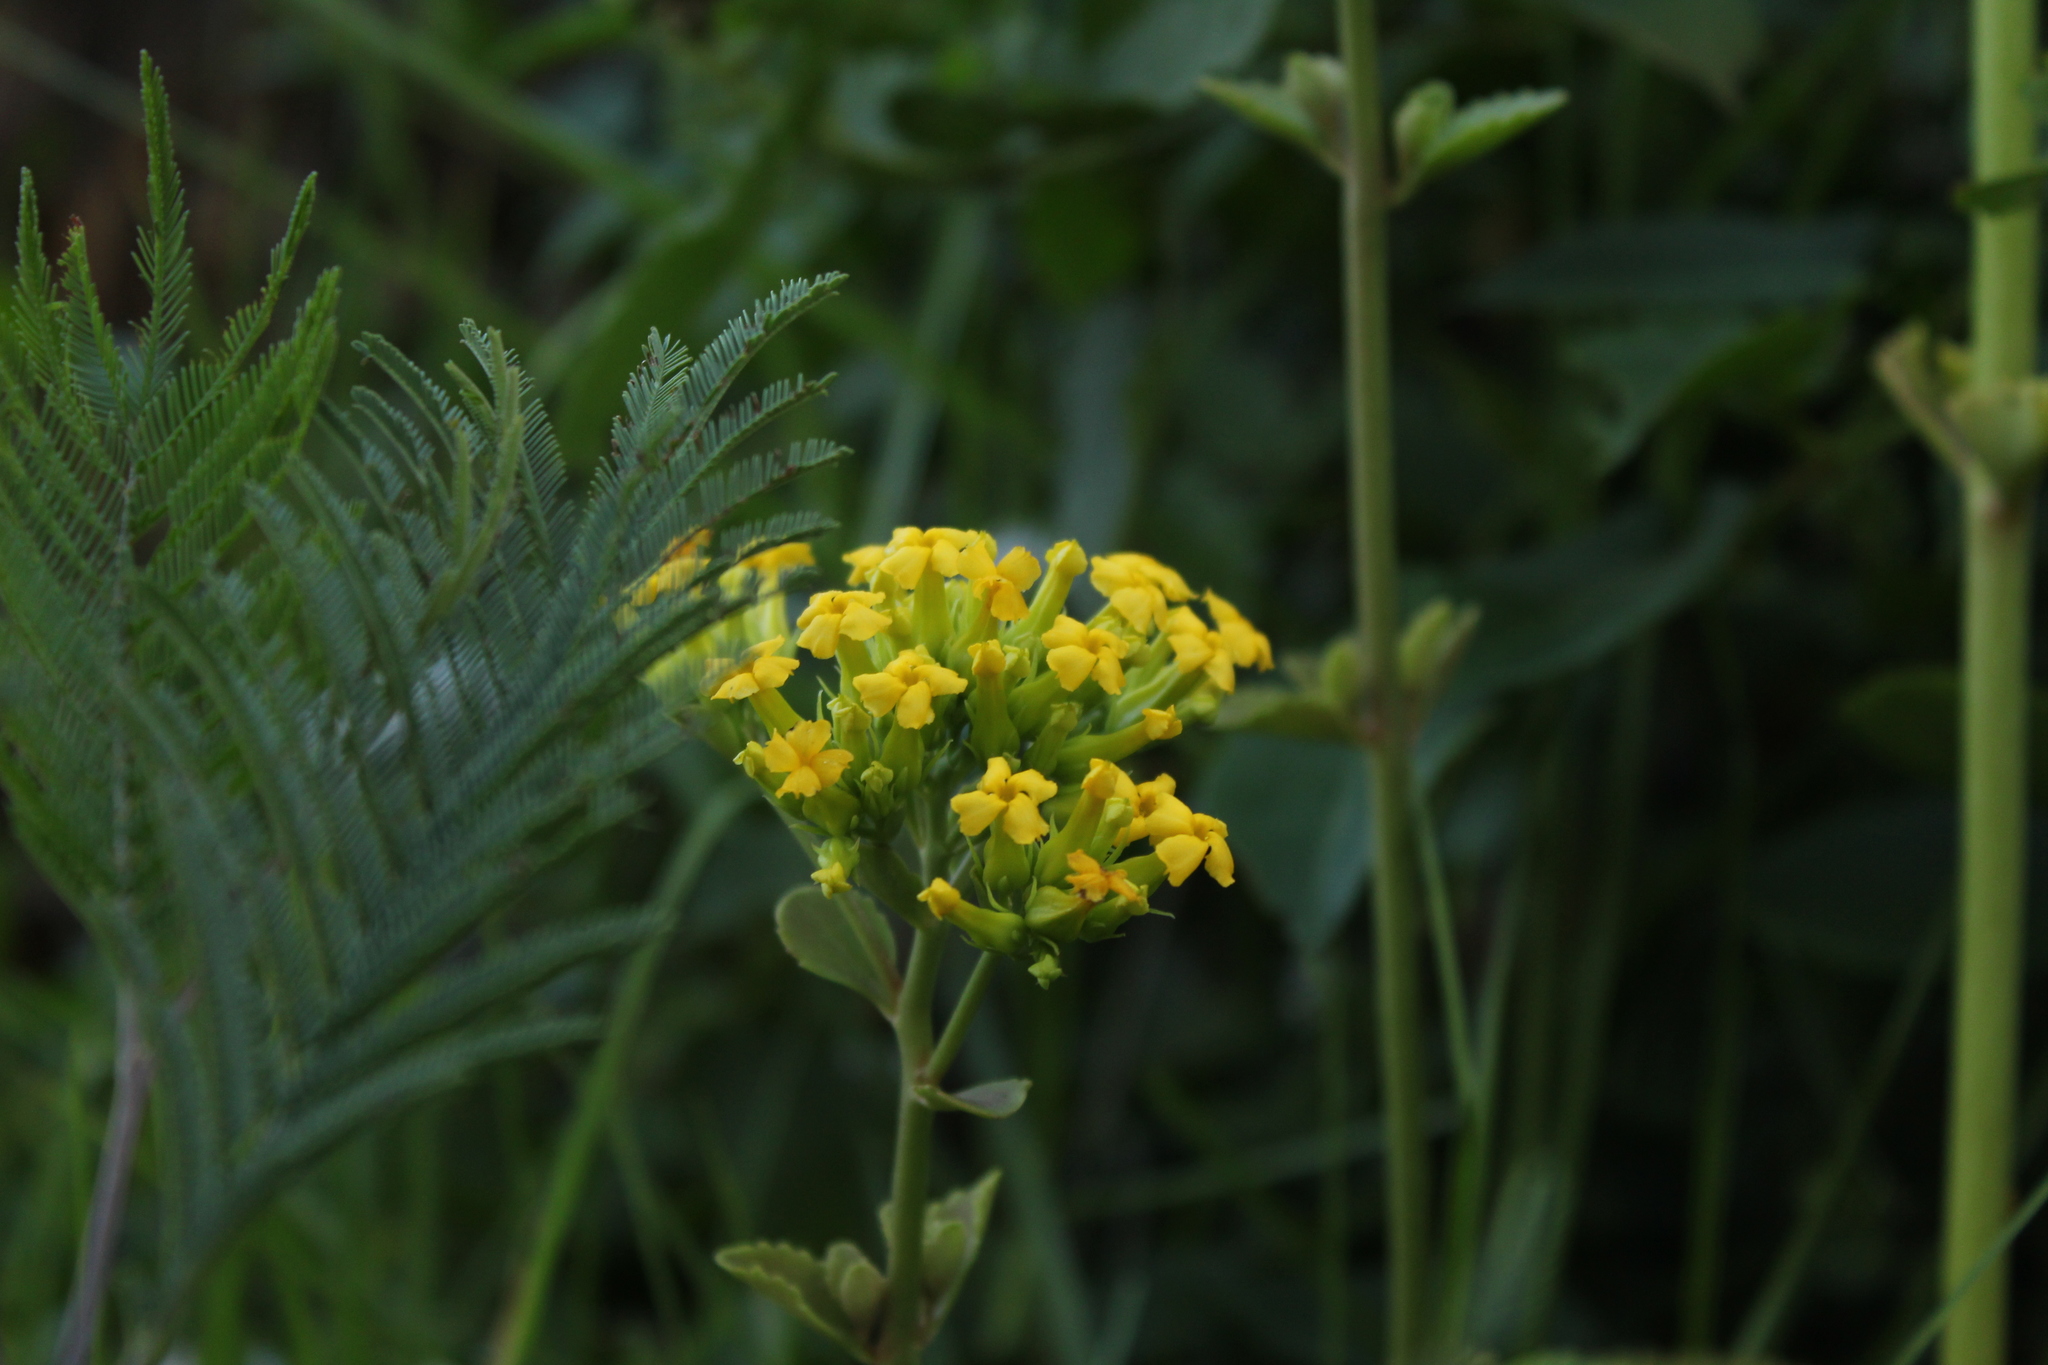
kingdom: Plantae
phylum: Tracheophyta
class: Magnoliopsida
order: Saxifragales
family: Crassulaceae
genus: Kalanchoe
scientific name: Kalanchoe densiflora
